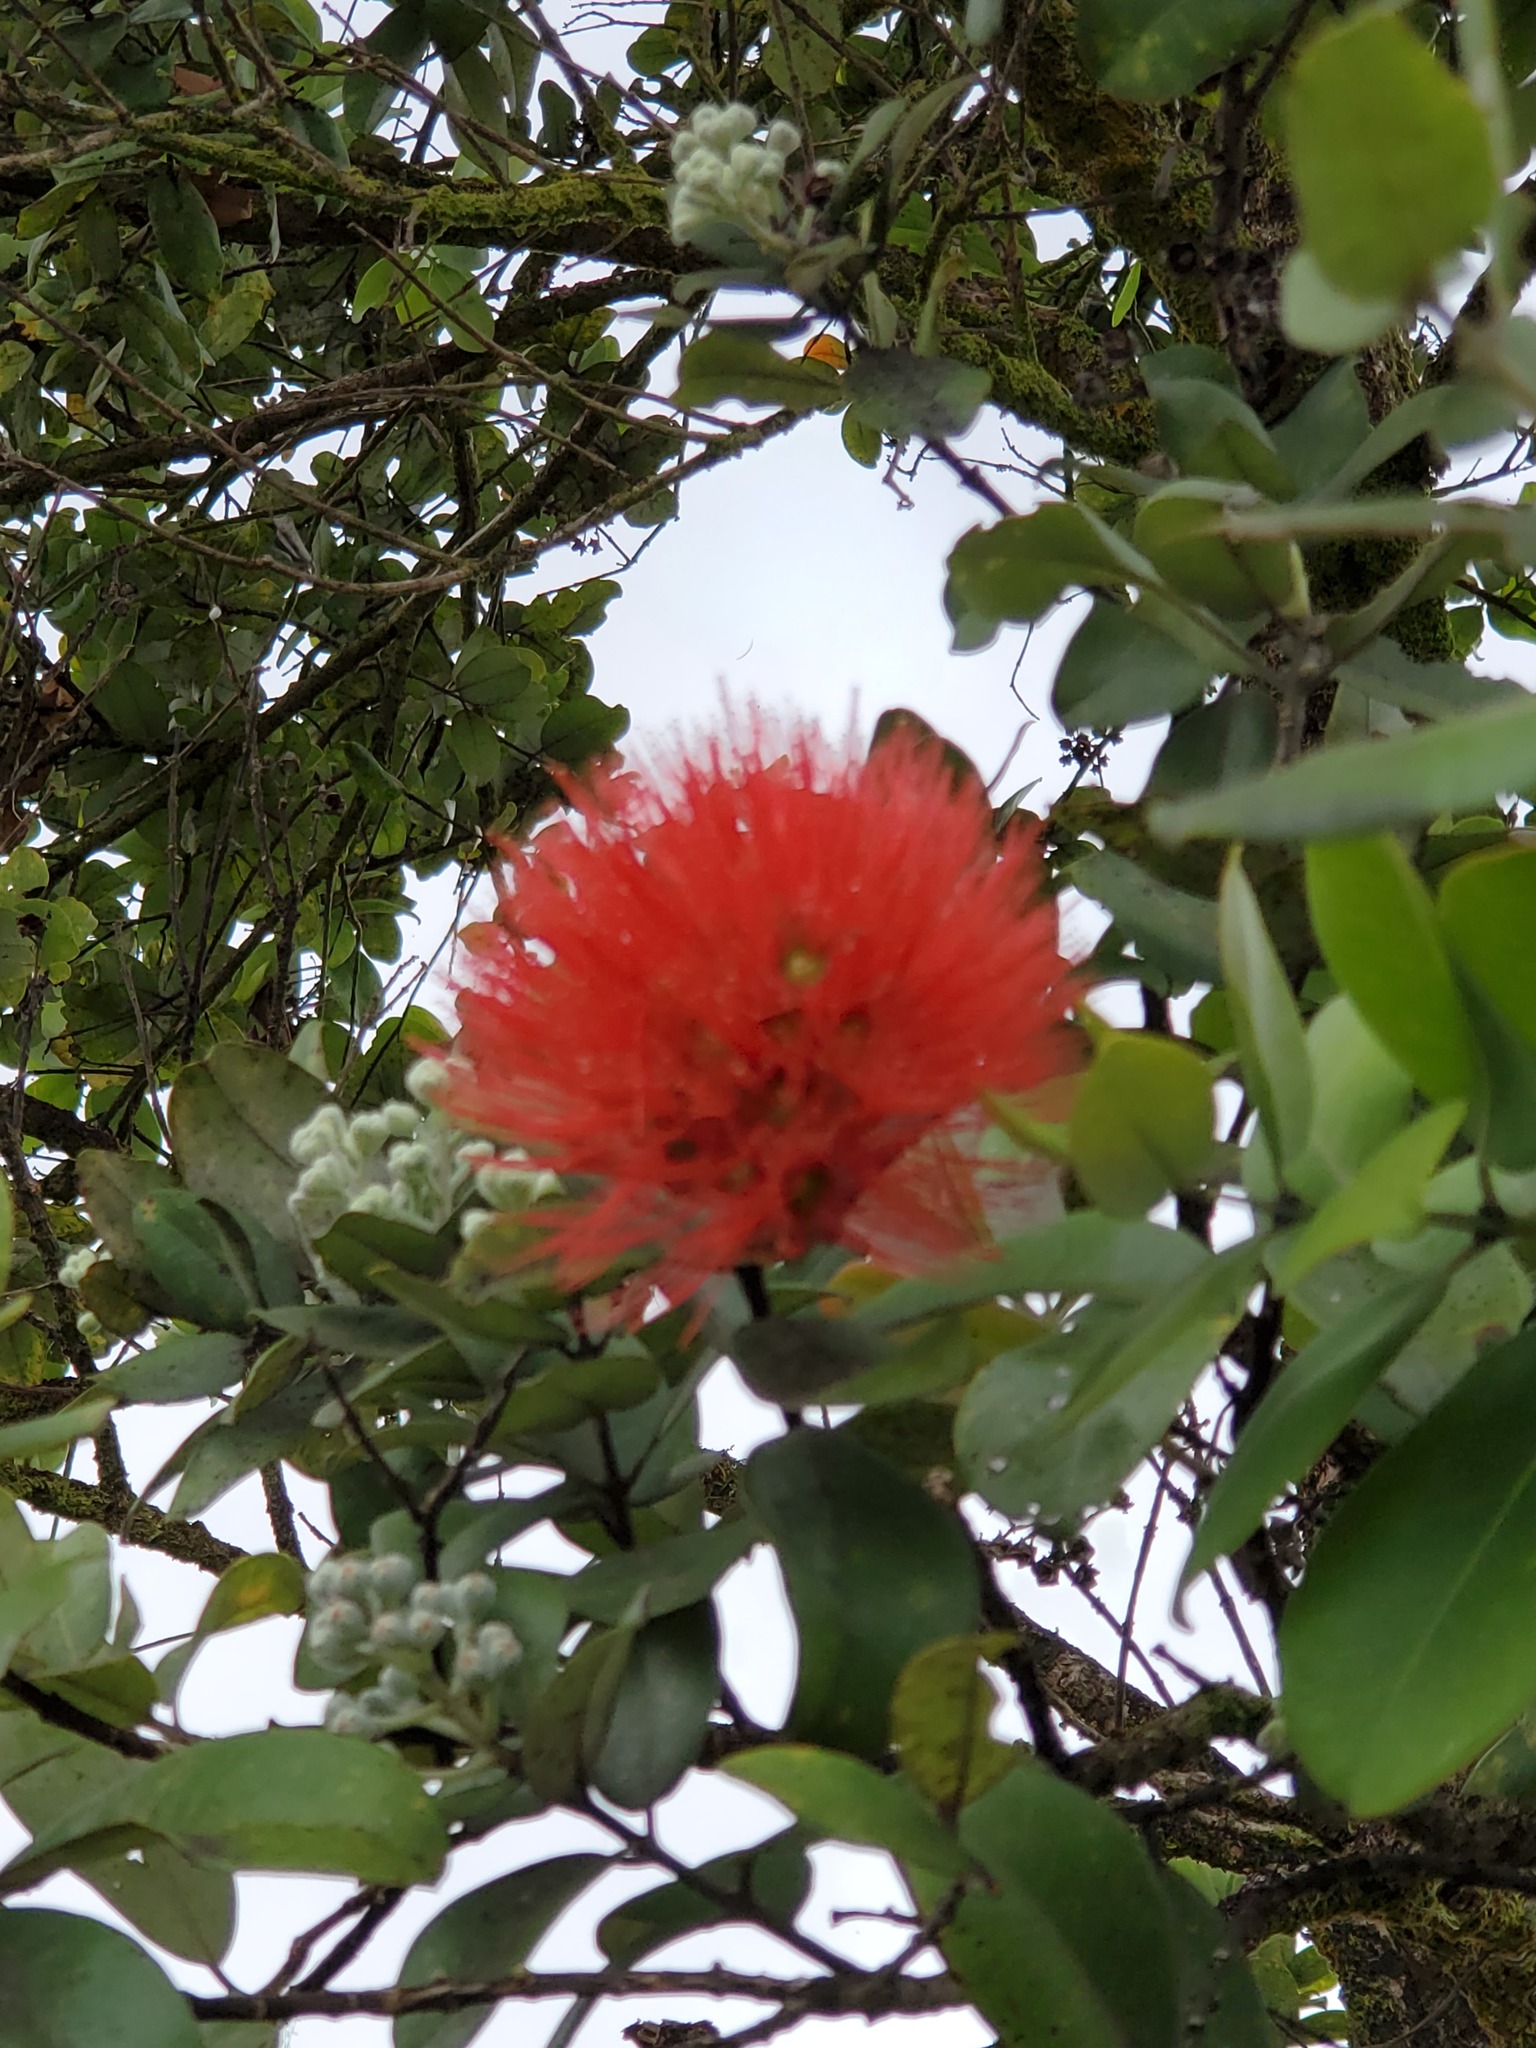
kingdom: Plantae
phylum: Tracheophyta
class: Magnoliopsida
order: Myrtales
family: Myrtaceae
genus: Metrosideros
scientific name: Metrosideros polymorpha
